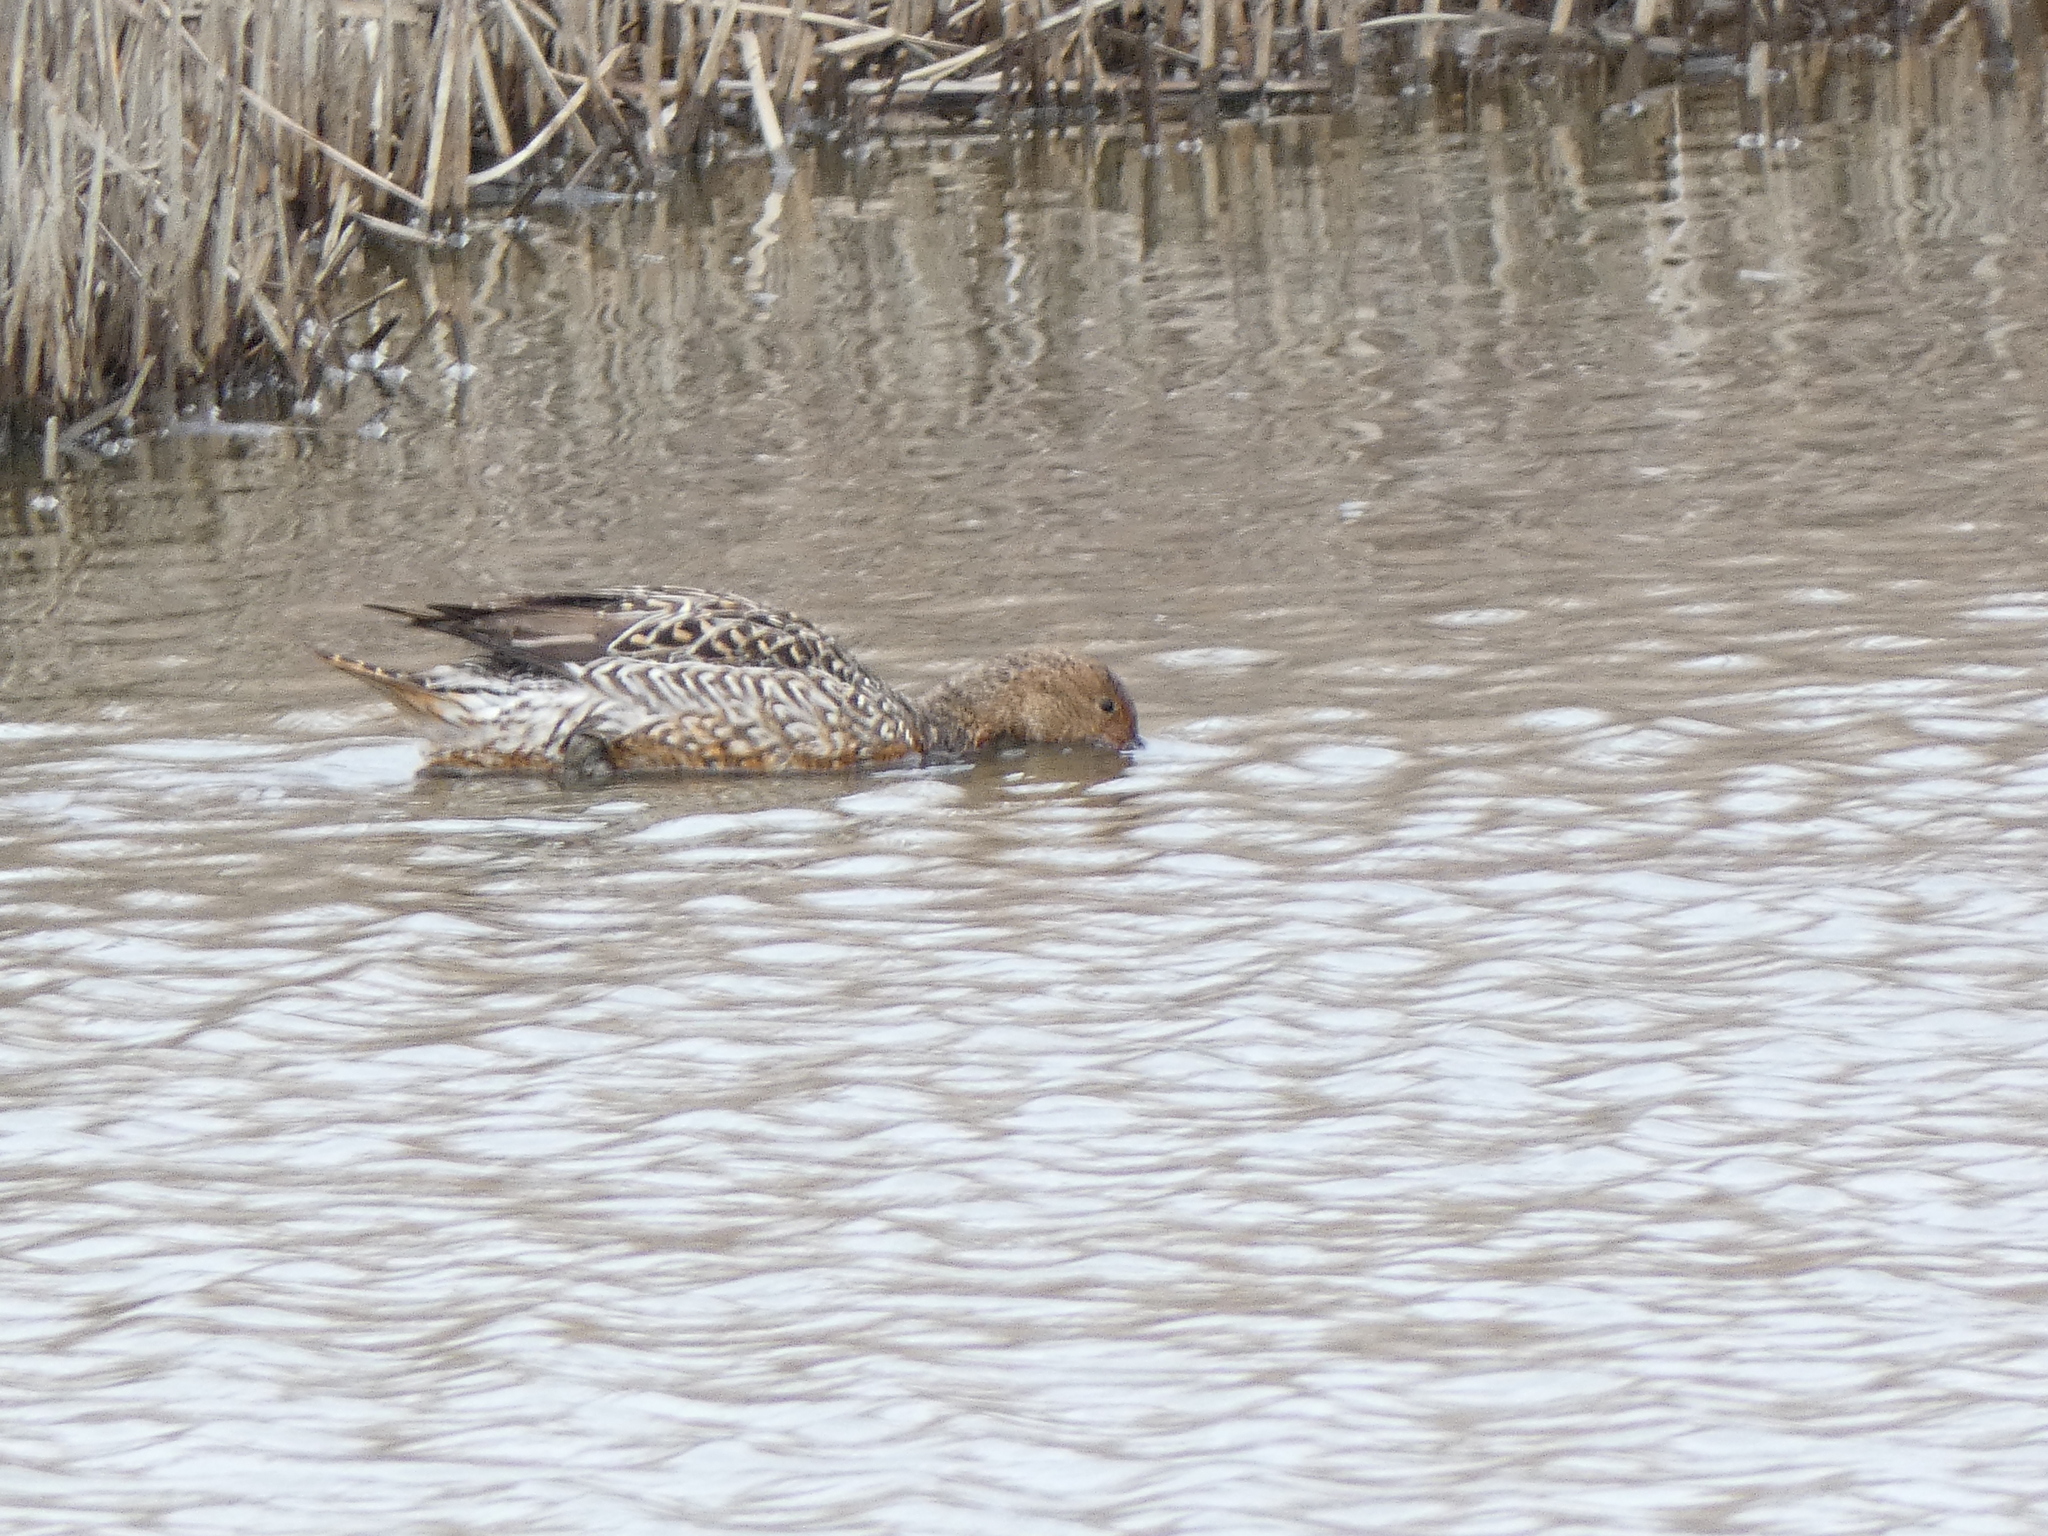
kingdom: Animalia
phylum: Chordata
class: Aves
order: Anseriformes
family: Anatidae
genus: Anas
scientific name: Anas acuta
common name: Northern pintail
